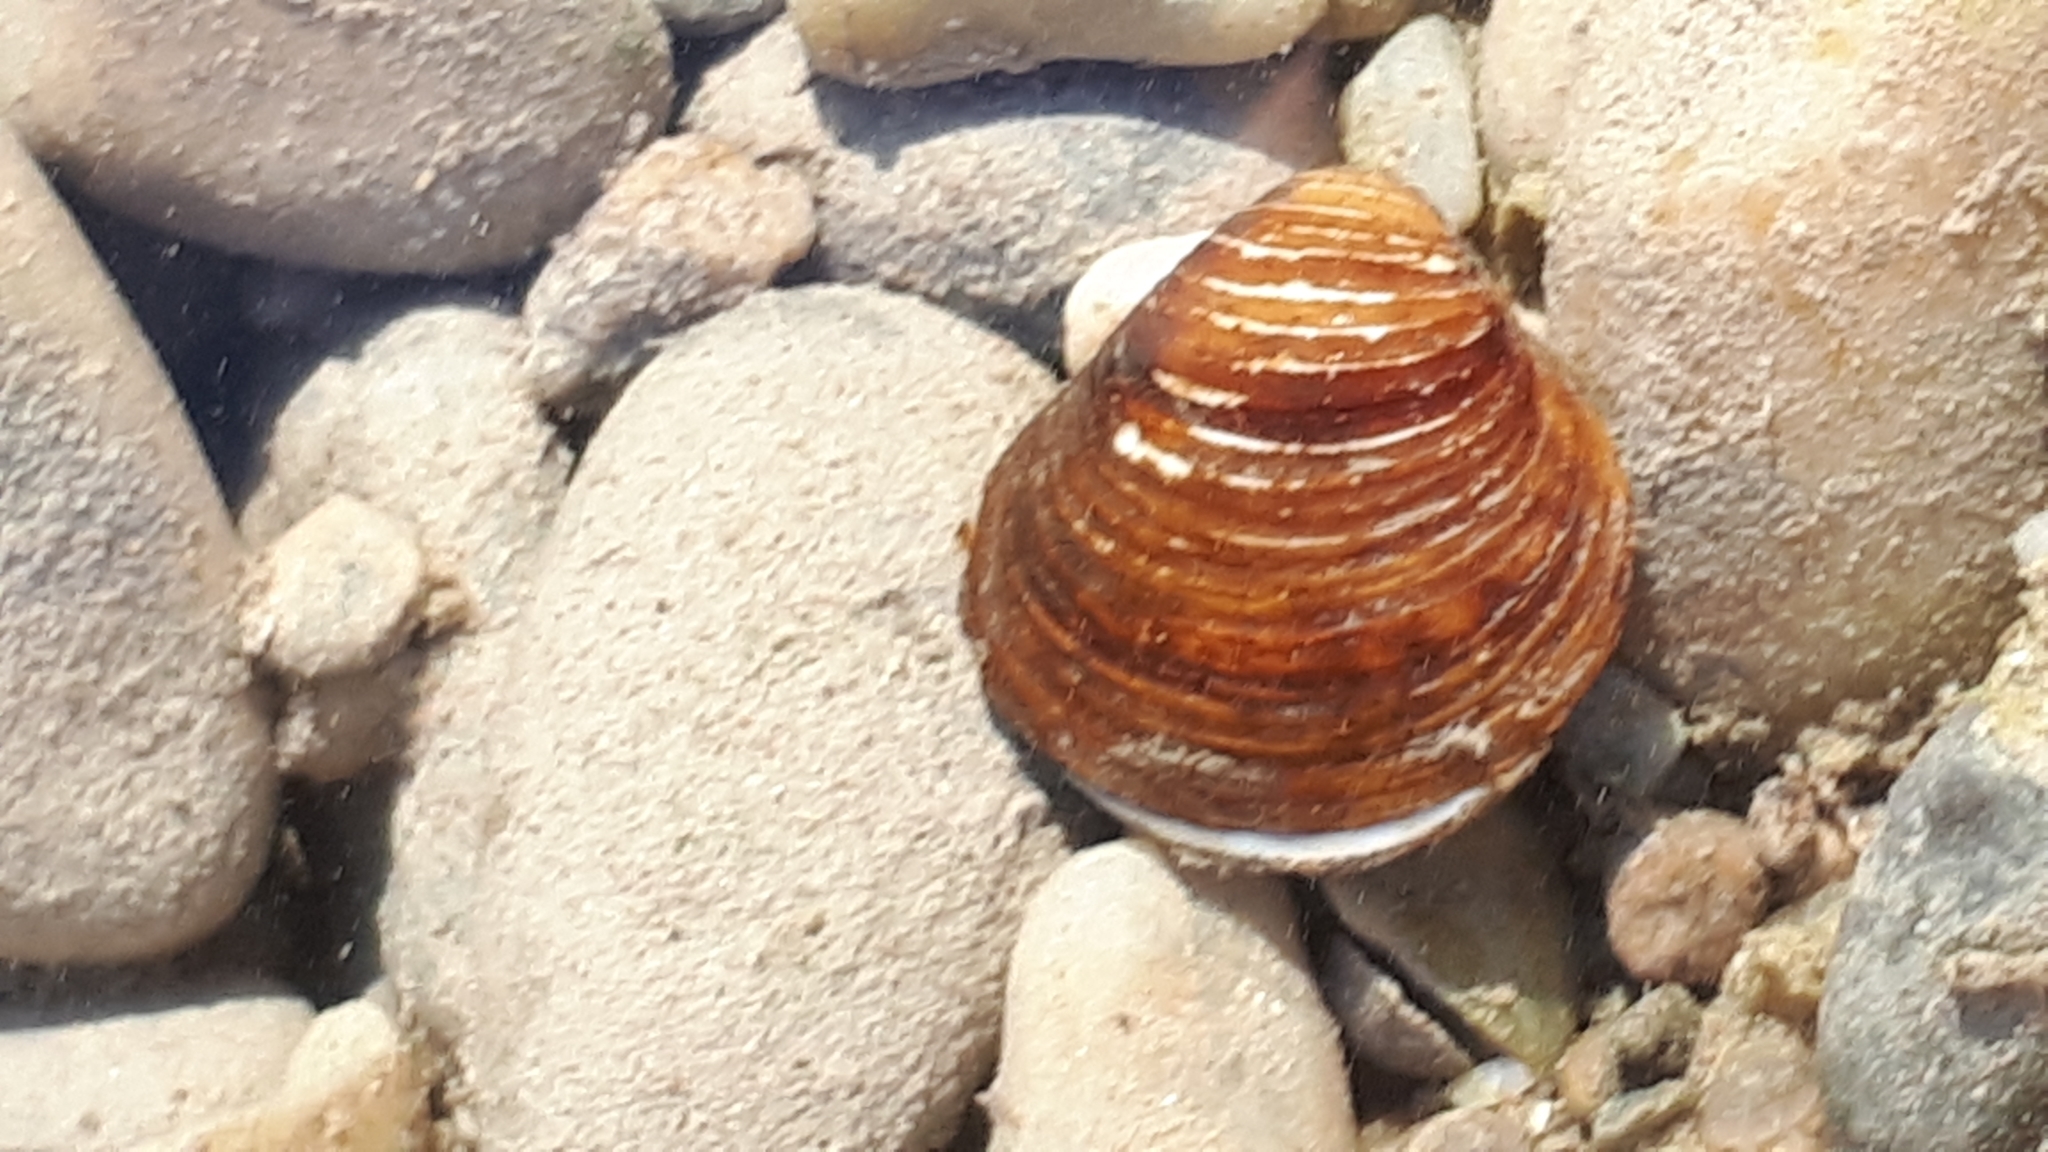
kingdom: Animalia
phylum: Mollusca
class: Bivalvia
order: Venerida
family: Cyrenidae
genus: Corbicula
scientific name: Corbicula fluminea
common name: Asian clam
